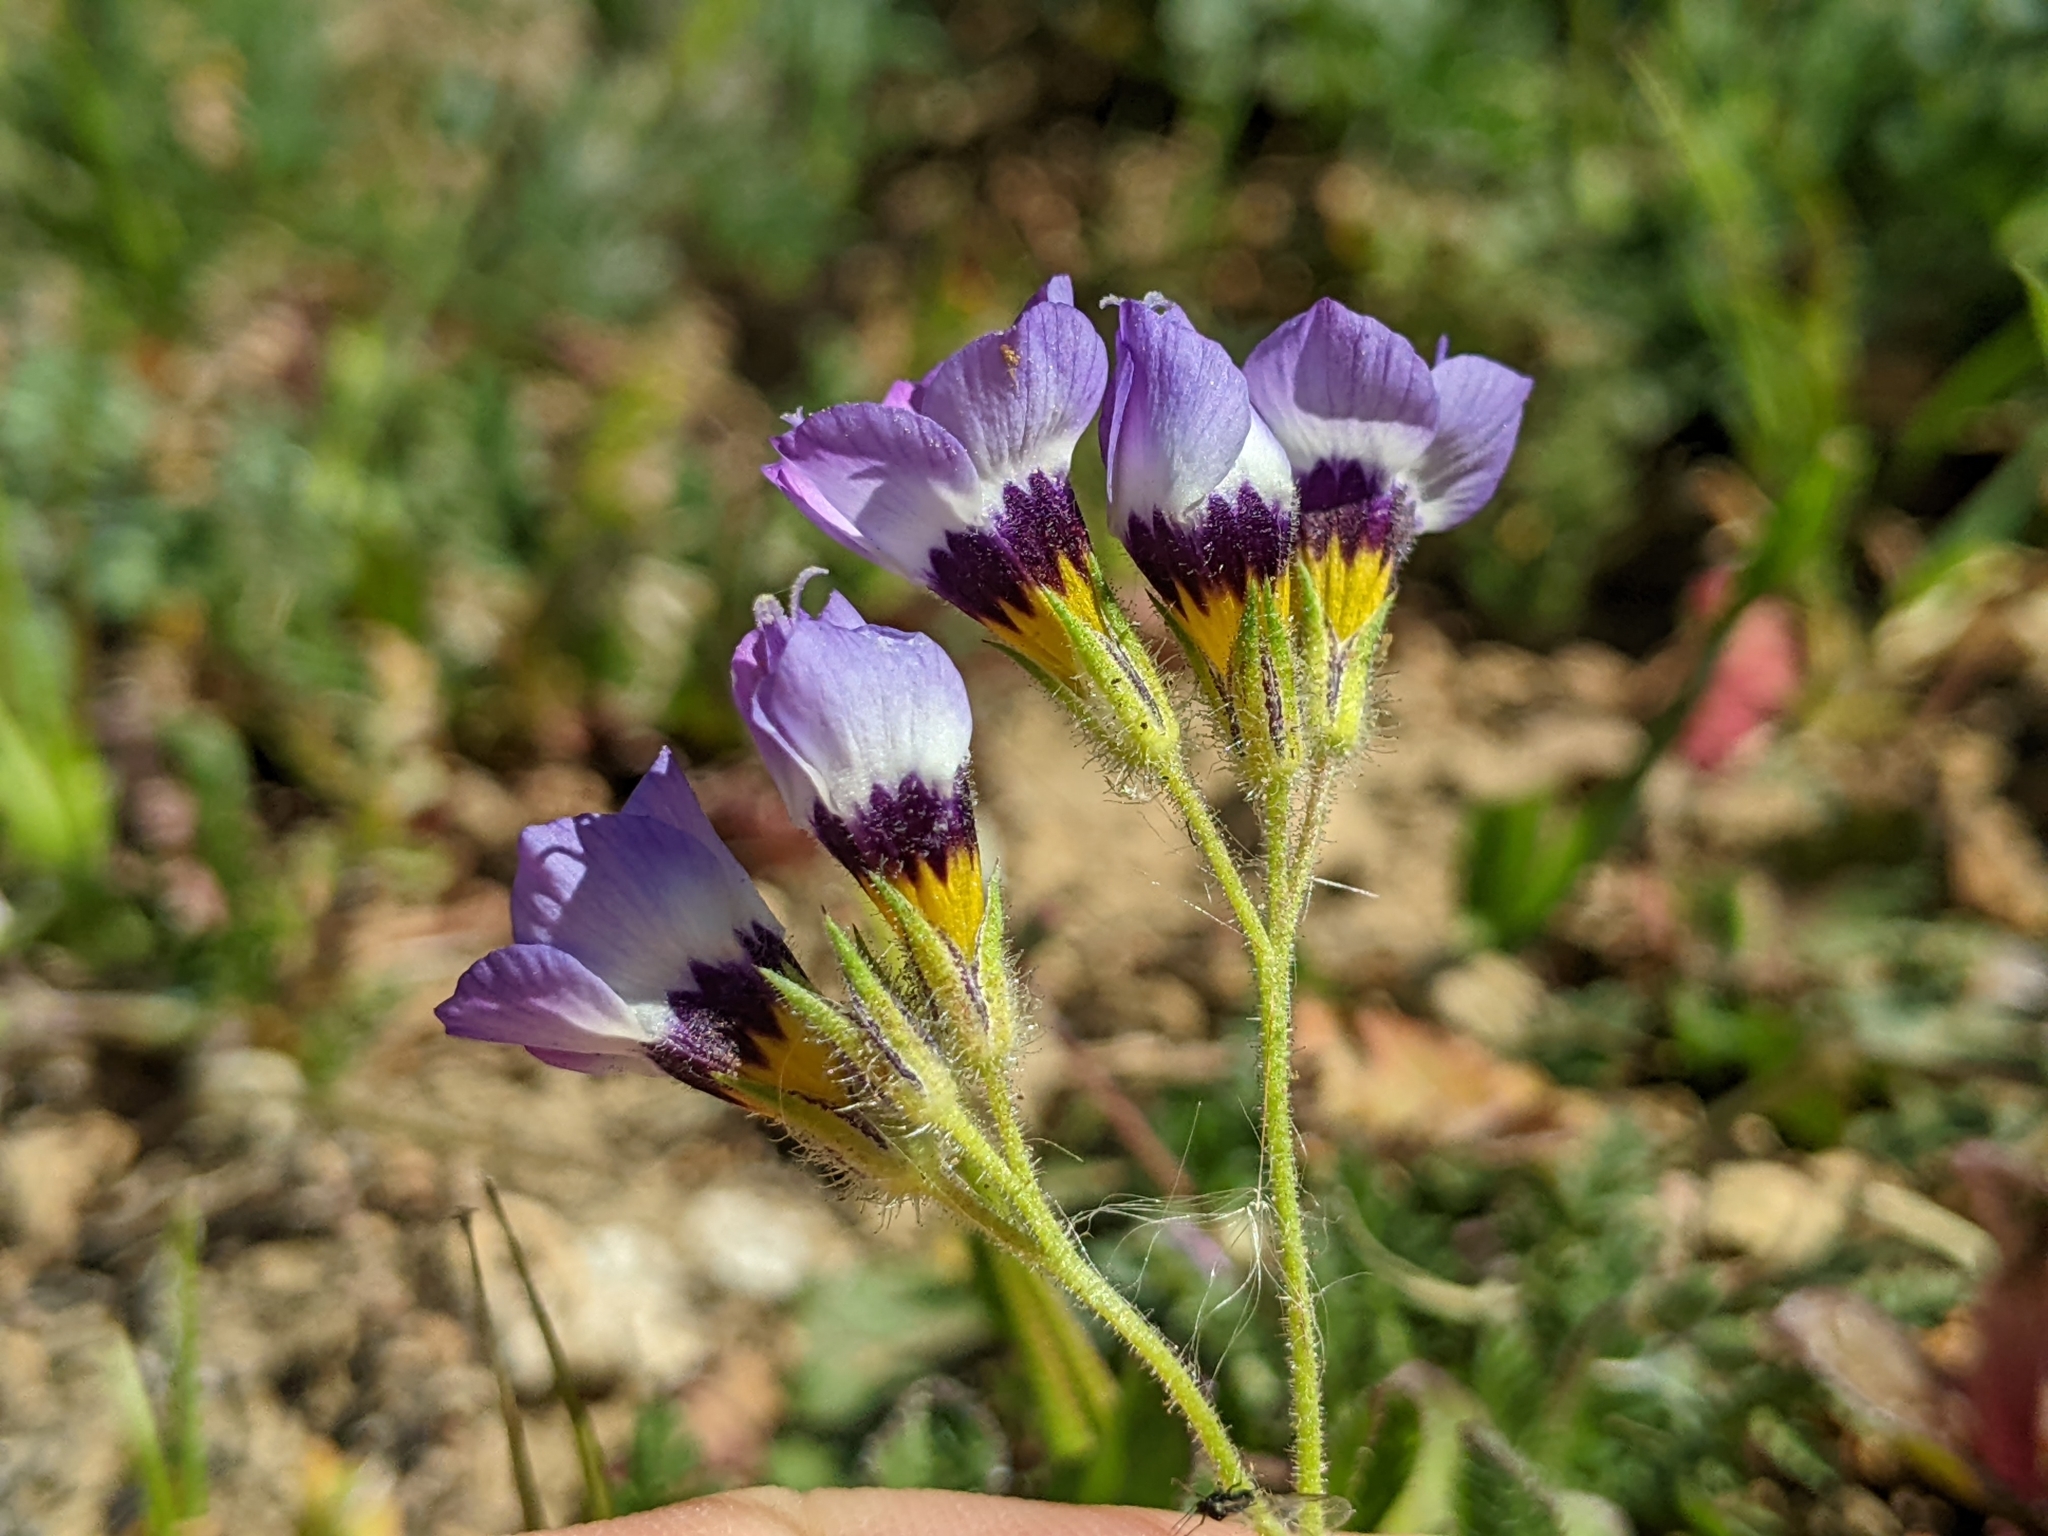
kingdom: Plantae
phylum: Tracheophyta
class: Magnoliopsida
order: Ericales
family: Polemoniaceae
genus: Gilia
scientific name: Gilia tricolor
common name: Bird's-eyes
